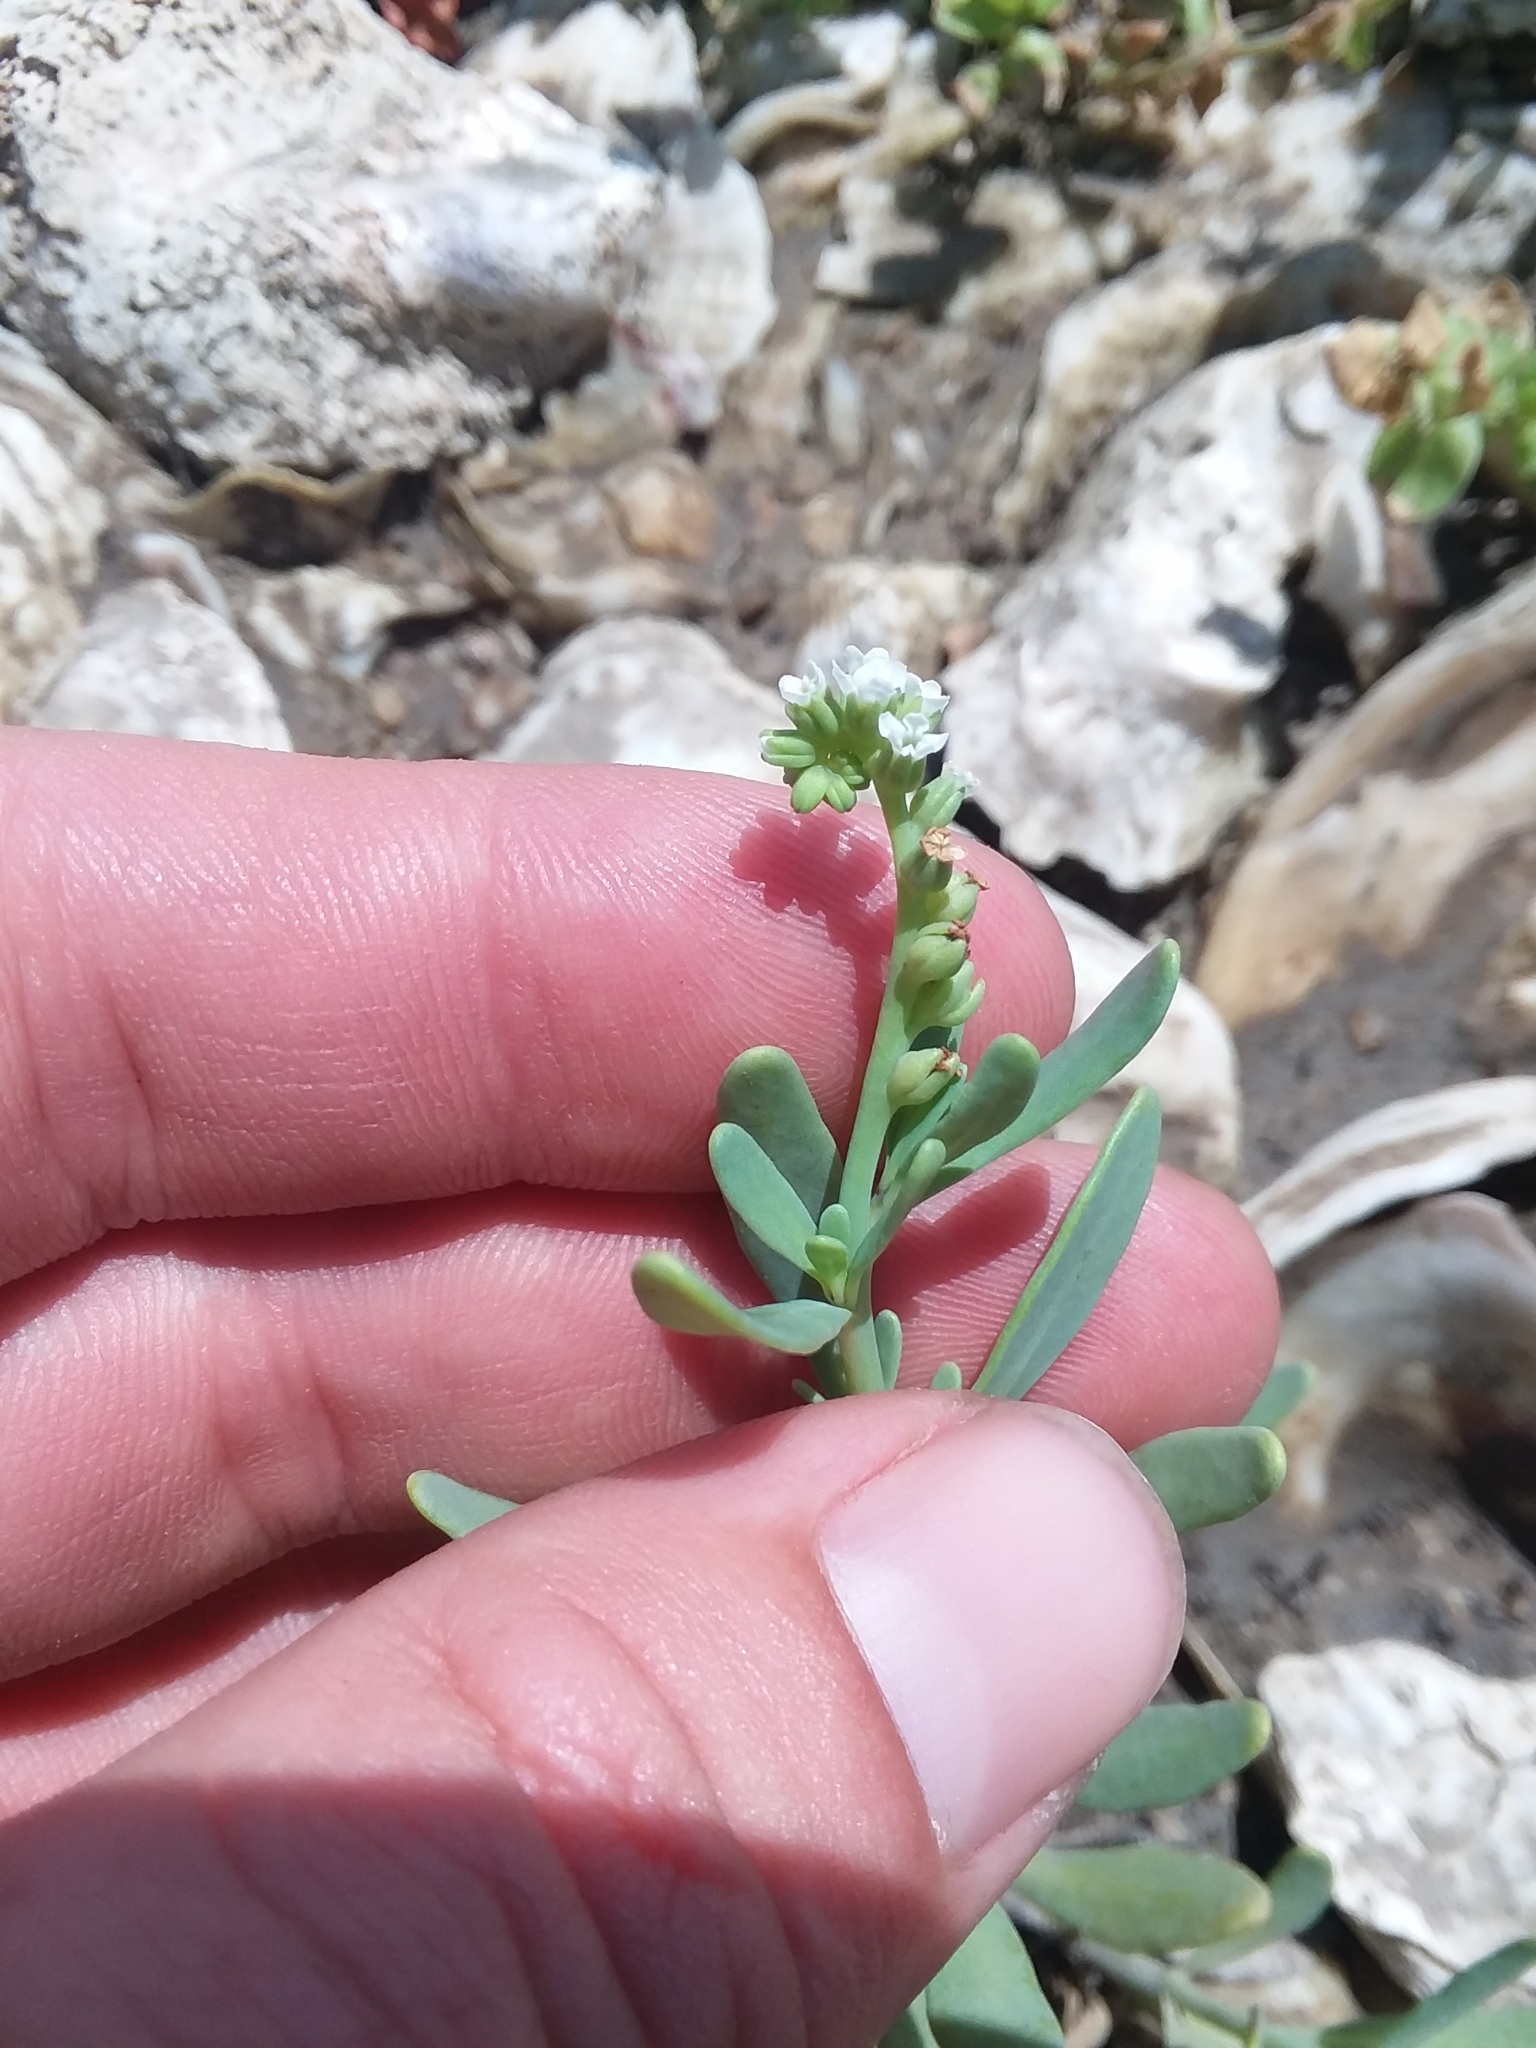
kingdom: Plantae
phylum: Tracheophyta
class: Magnoliopsida
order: Boraginales
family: Heliotropiaceae
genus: Heliotropium
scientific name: Heliotropium curassavicum
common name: Seaside heliotrope
